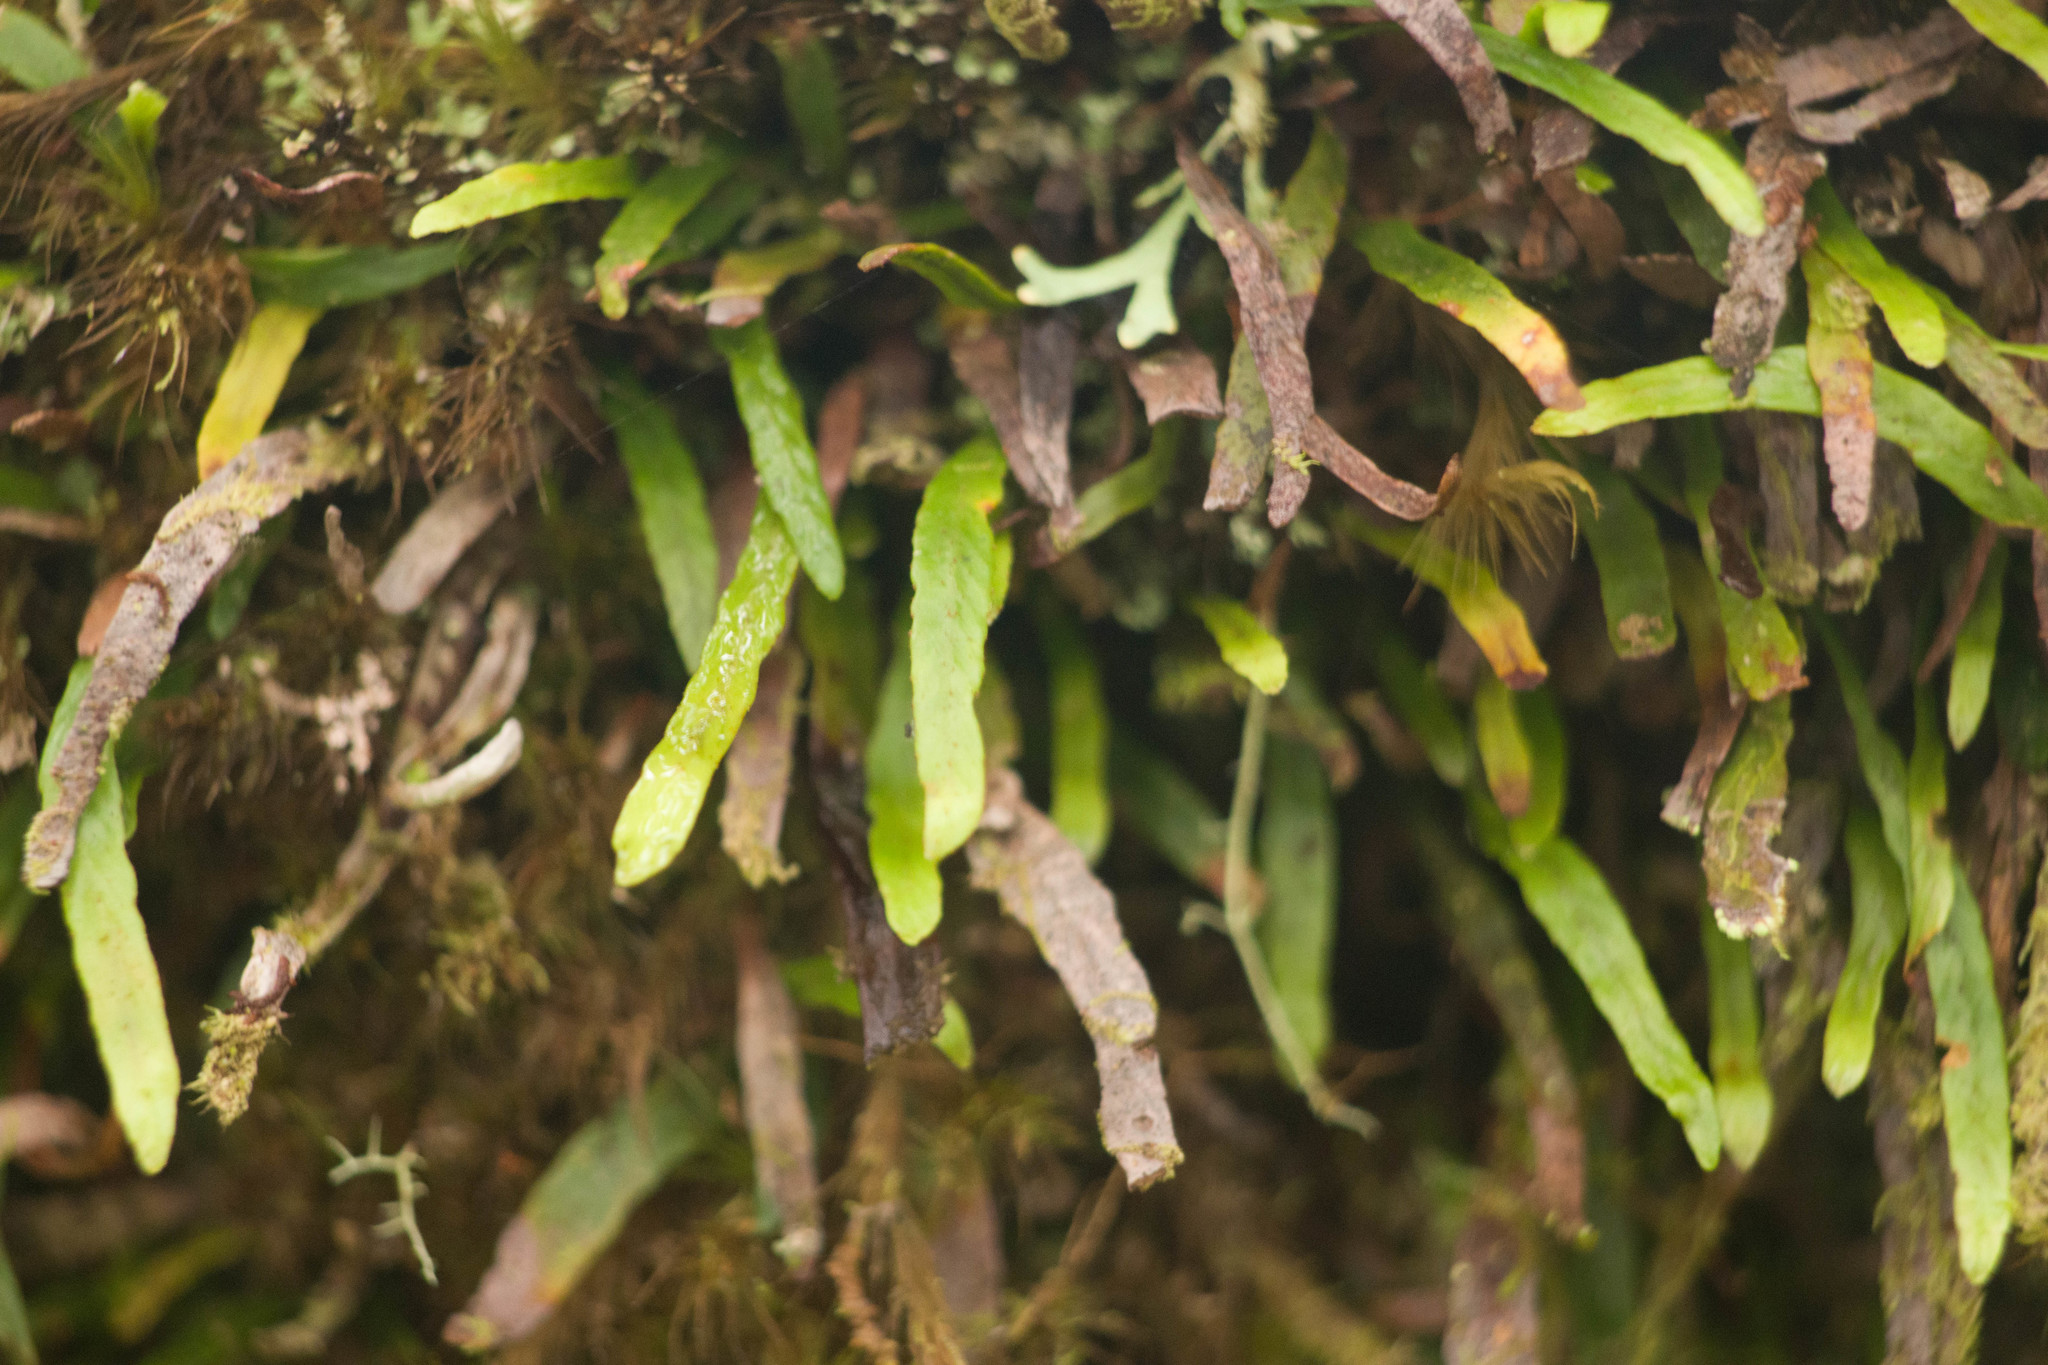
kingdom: Plantae
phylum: Tracheophyta
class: Polypodiopsida
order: Polypodiales
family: Polypodiaceae
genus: Adenophorus
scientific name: Adenophorus tenellus
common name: Kolokolo
